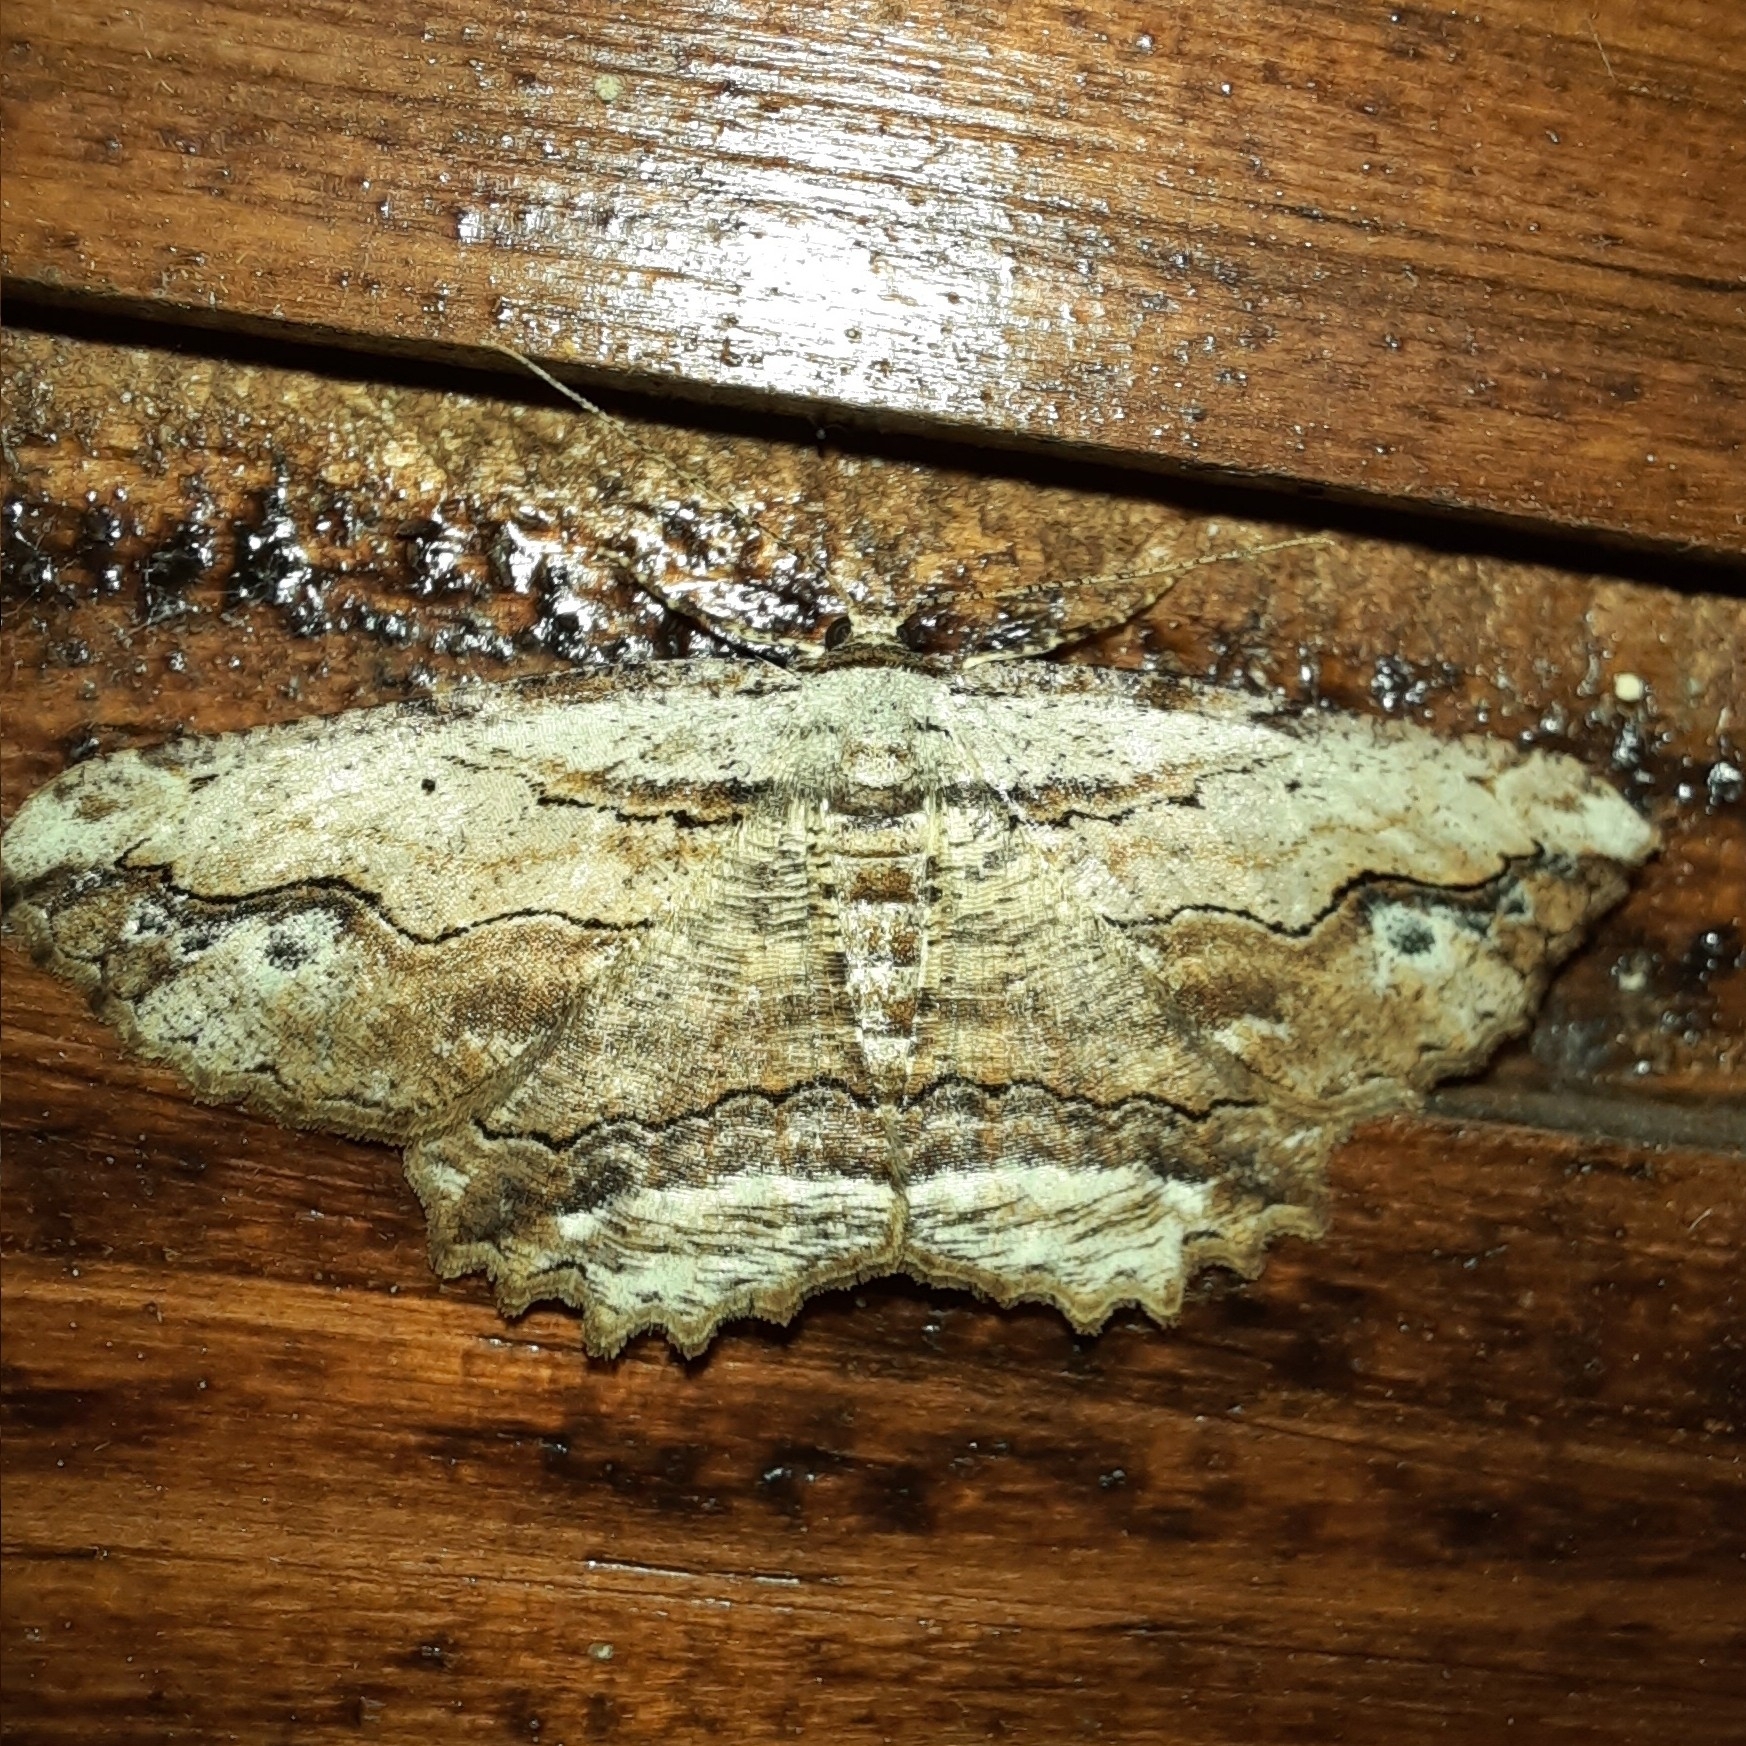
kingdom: Animalia
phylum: Arthropoda
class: Insecta
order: Lepidoptera
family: Geometridae
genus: Menophra
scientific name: Menophra abruptaria
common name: Waved umber
